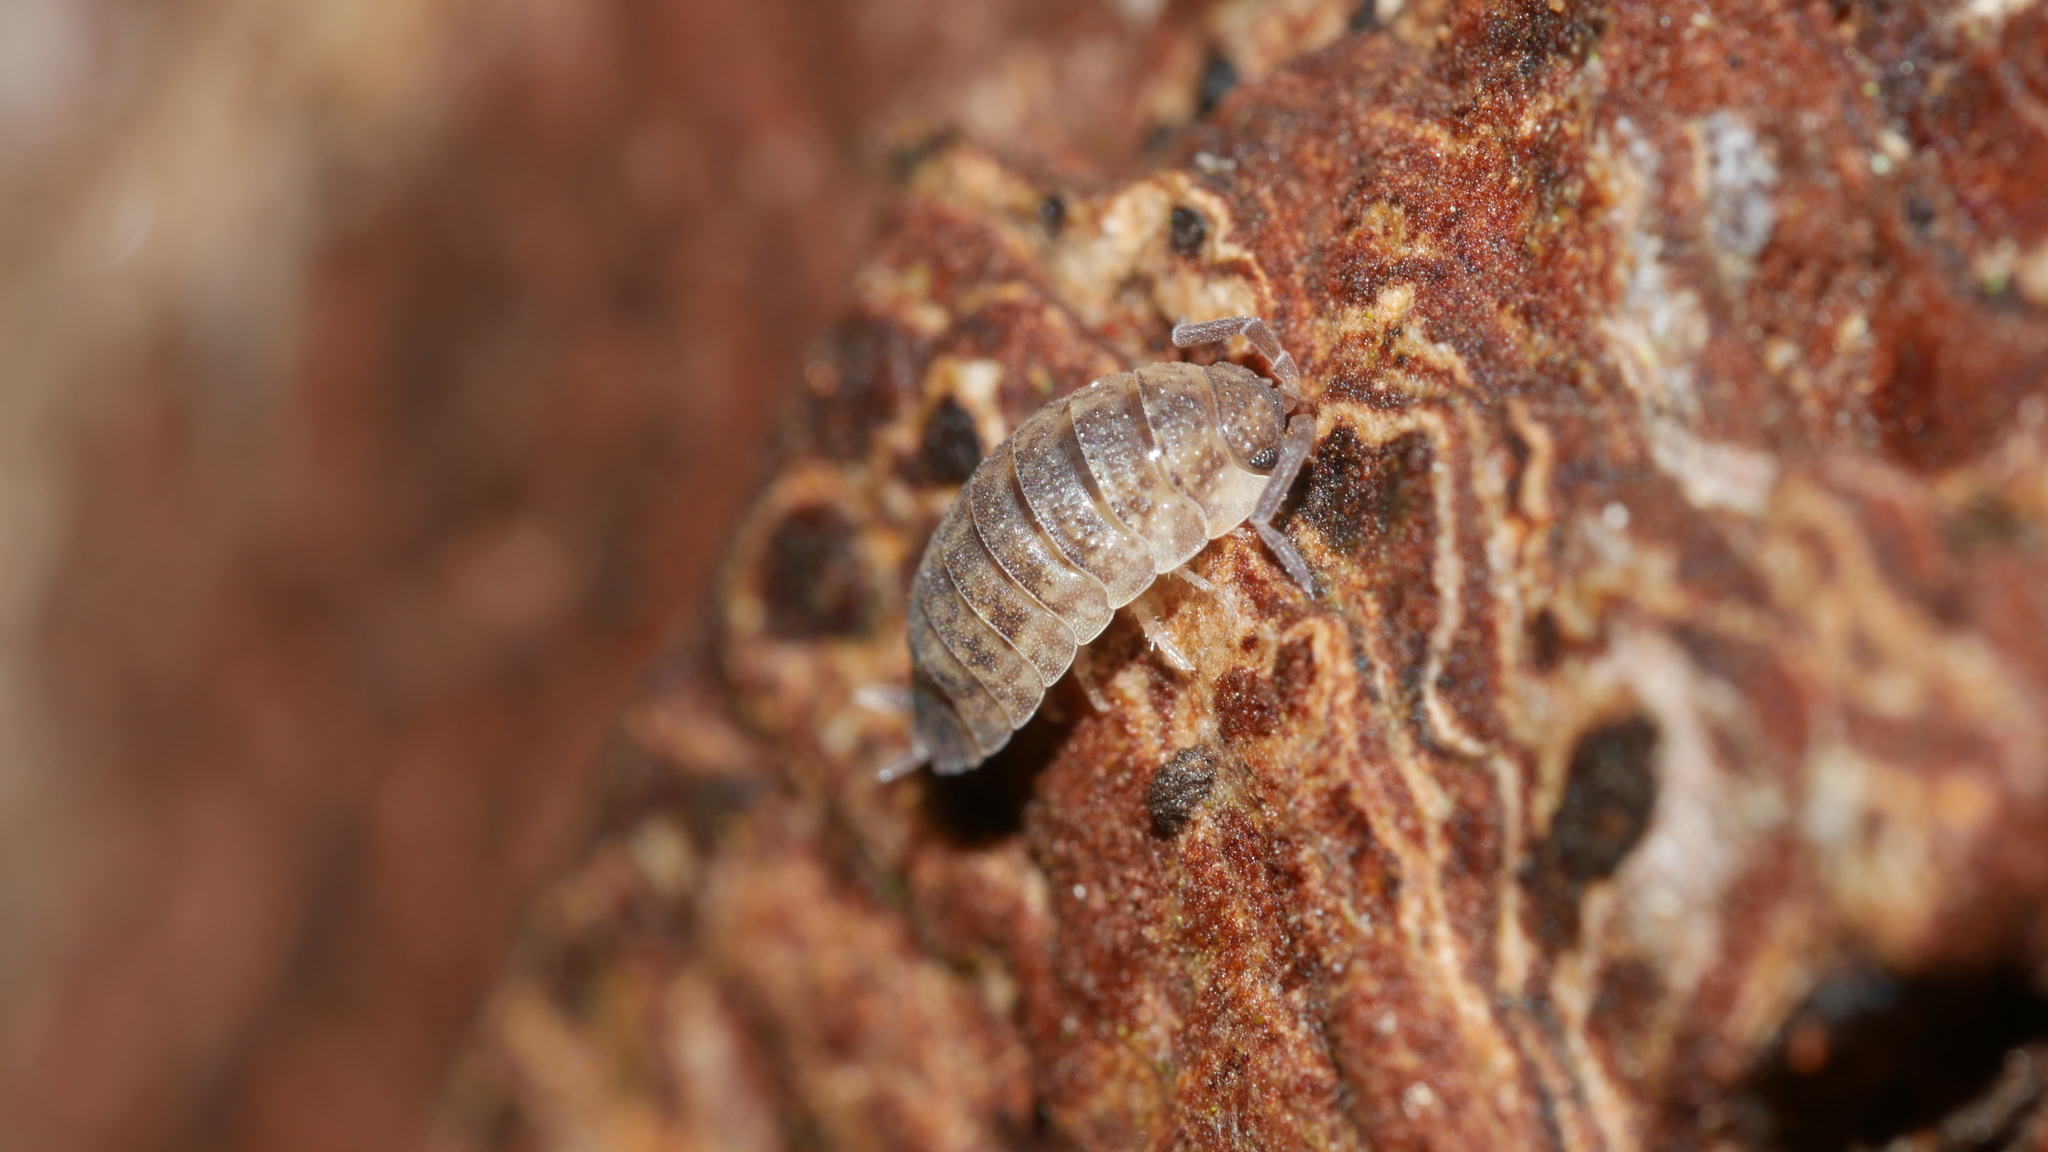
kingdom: Animalia
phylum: Arthropoda
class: Malacostraca
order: Isopoda
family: Porcellionidae
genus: Porcellio
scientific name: Porcellio scaber
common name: Common rough woodlouse
